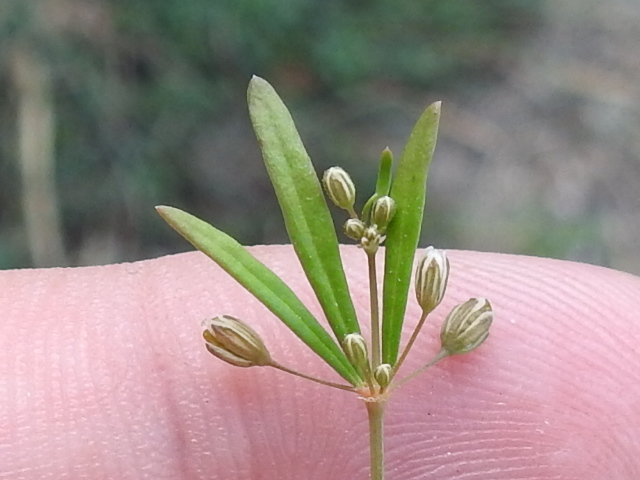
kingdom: Plantae
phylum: Tracheophyta
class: Magnoliopsida
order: Caryophyllales
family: Molluginaceae
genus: Mollugo
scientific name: Mollugo verticillata
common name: Green carpetweed
